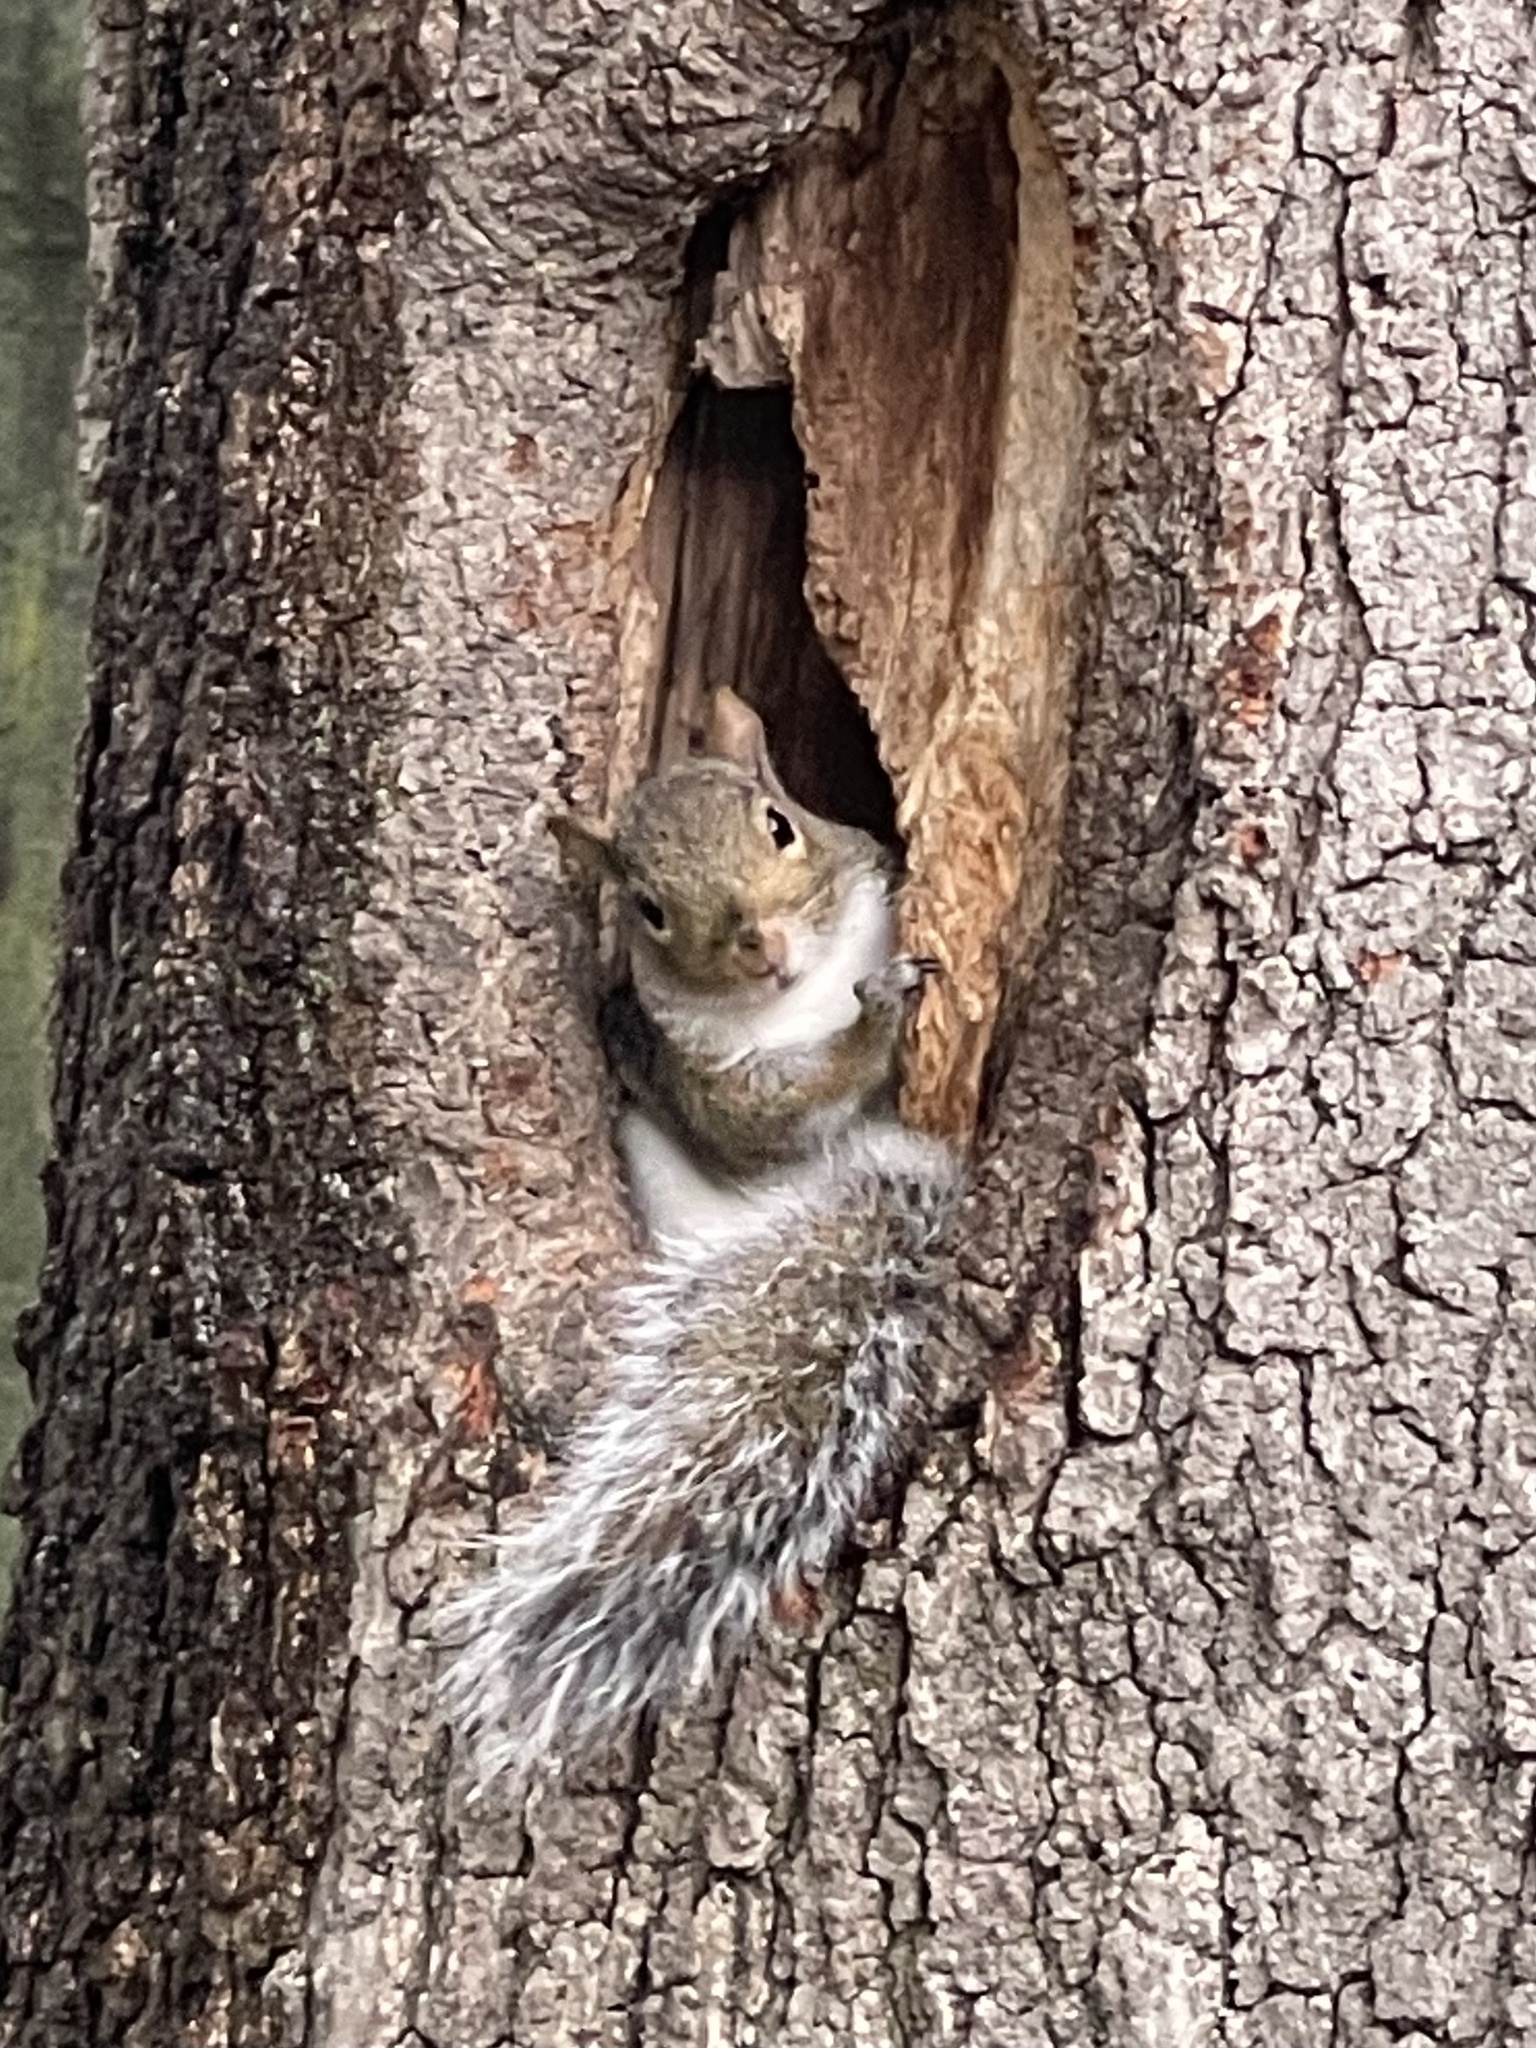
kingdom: Animalia
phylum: Chordata
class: Mammalia
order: Rodentia
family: Sciuridae
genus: Sciurus
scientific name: Sciurus carolinensis
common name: Eastern gray squirrel
